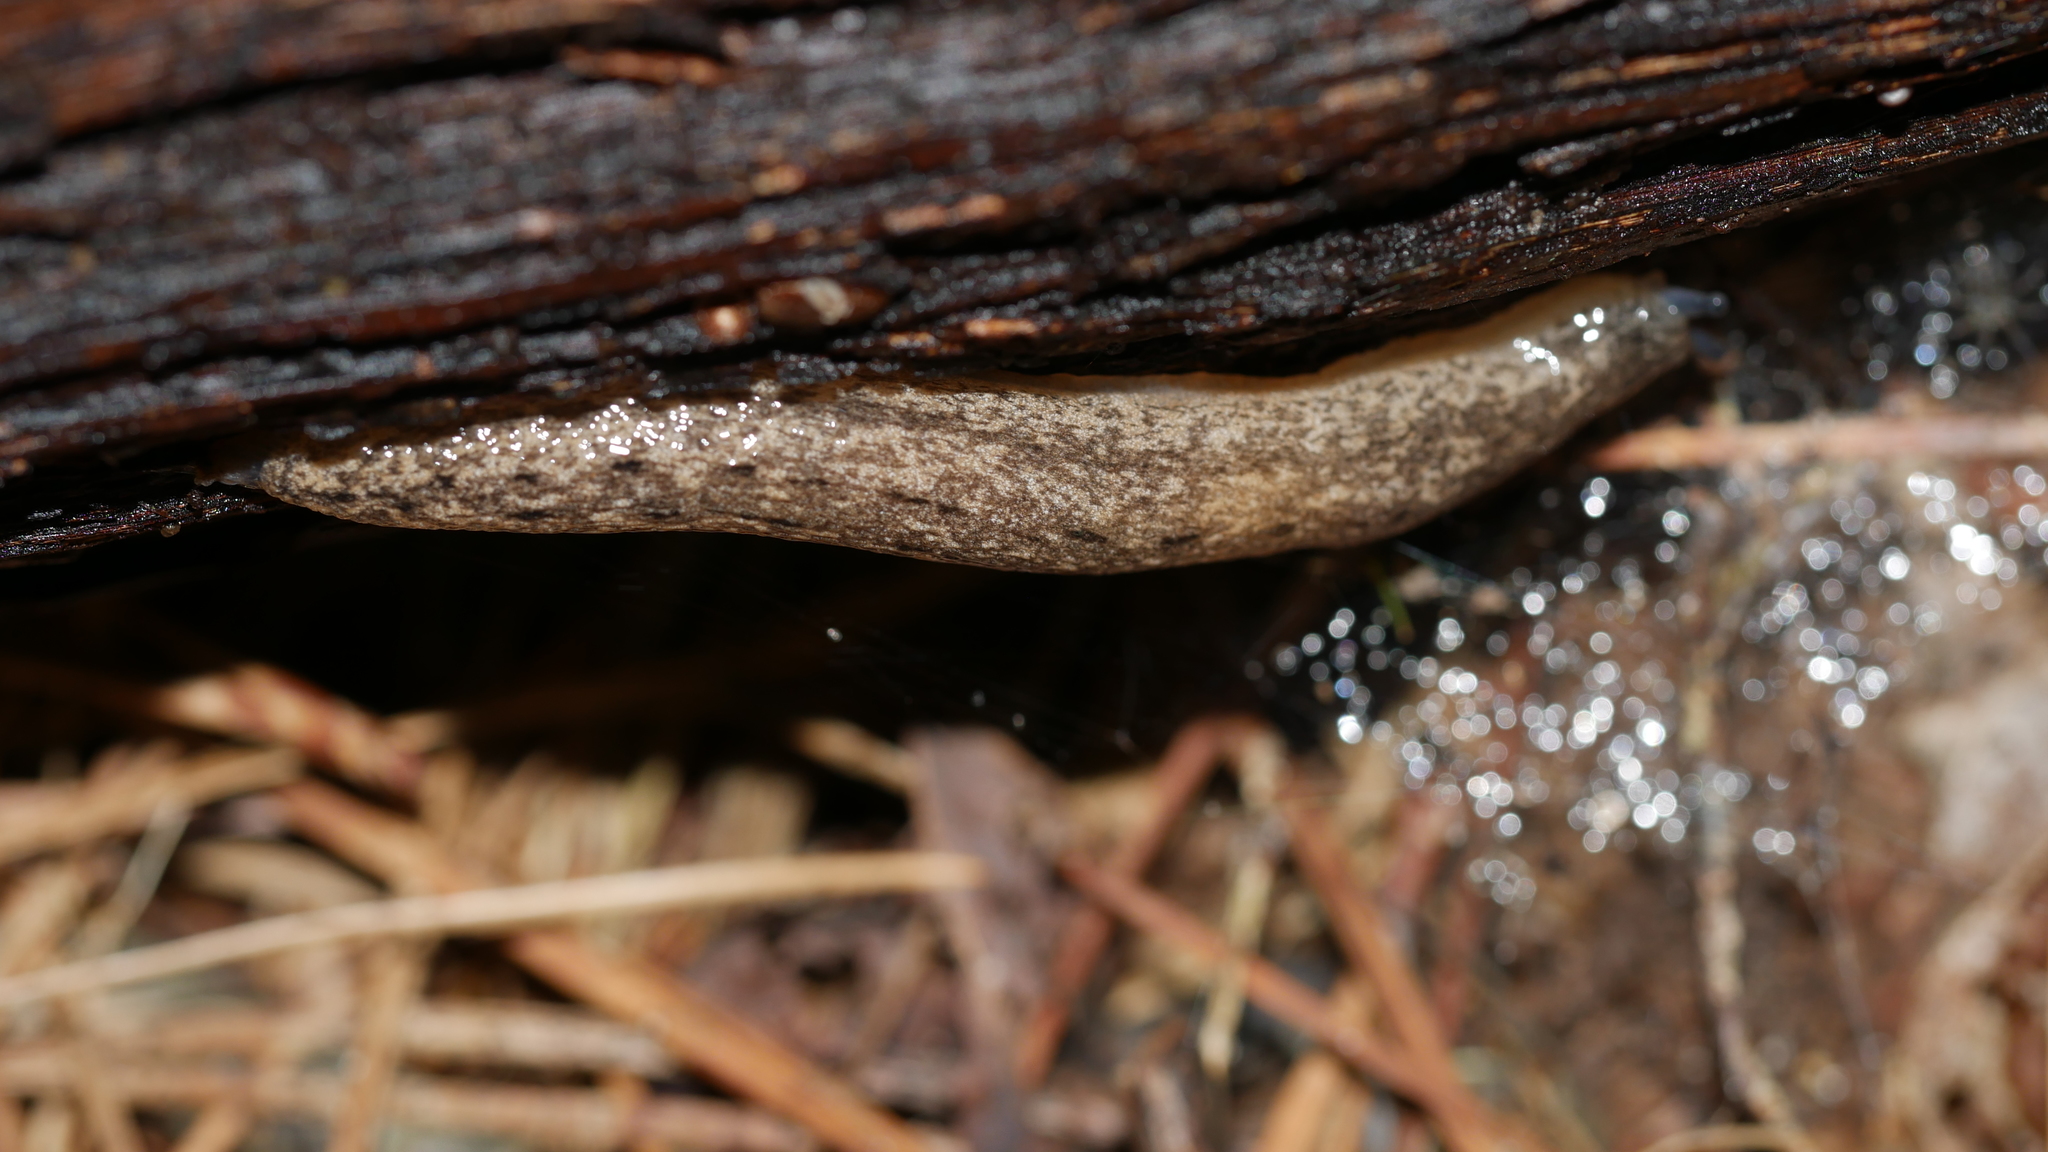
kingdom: Animalia
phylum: Mollusca
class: Gastropoda
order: Stylommatophora
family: Philomycidae
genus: Megapallifera
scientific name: Megapallifera mutabilis
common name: Changeable mantleslug
